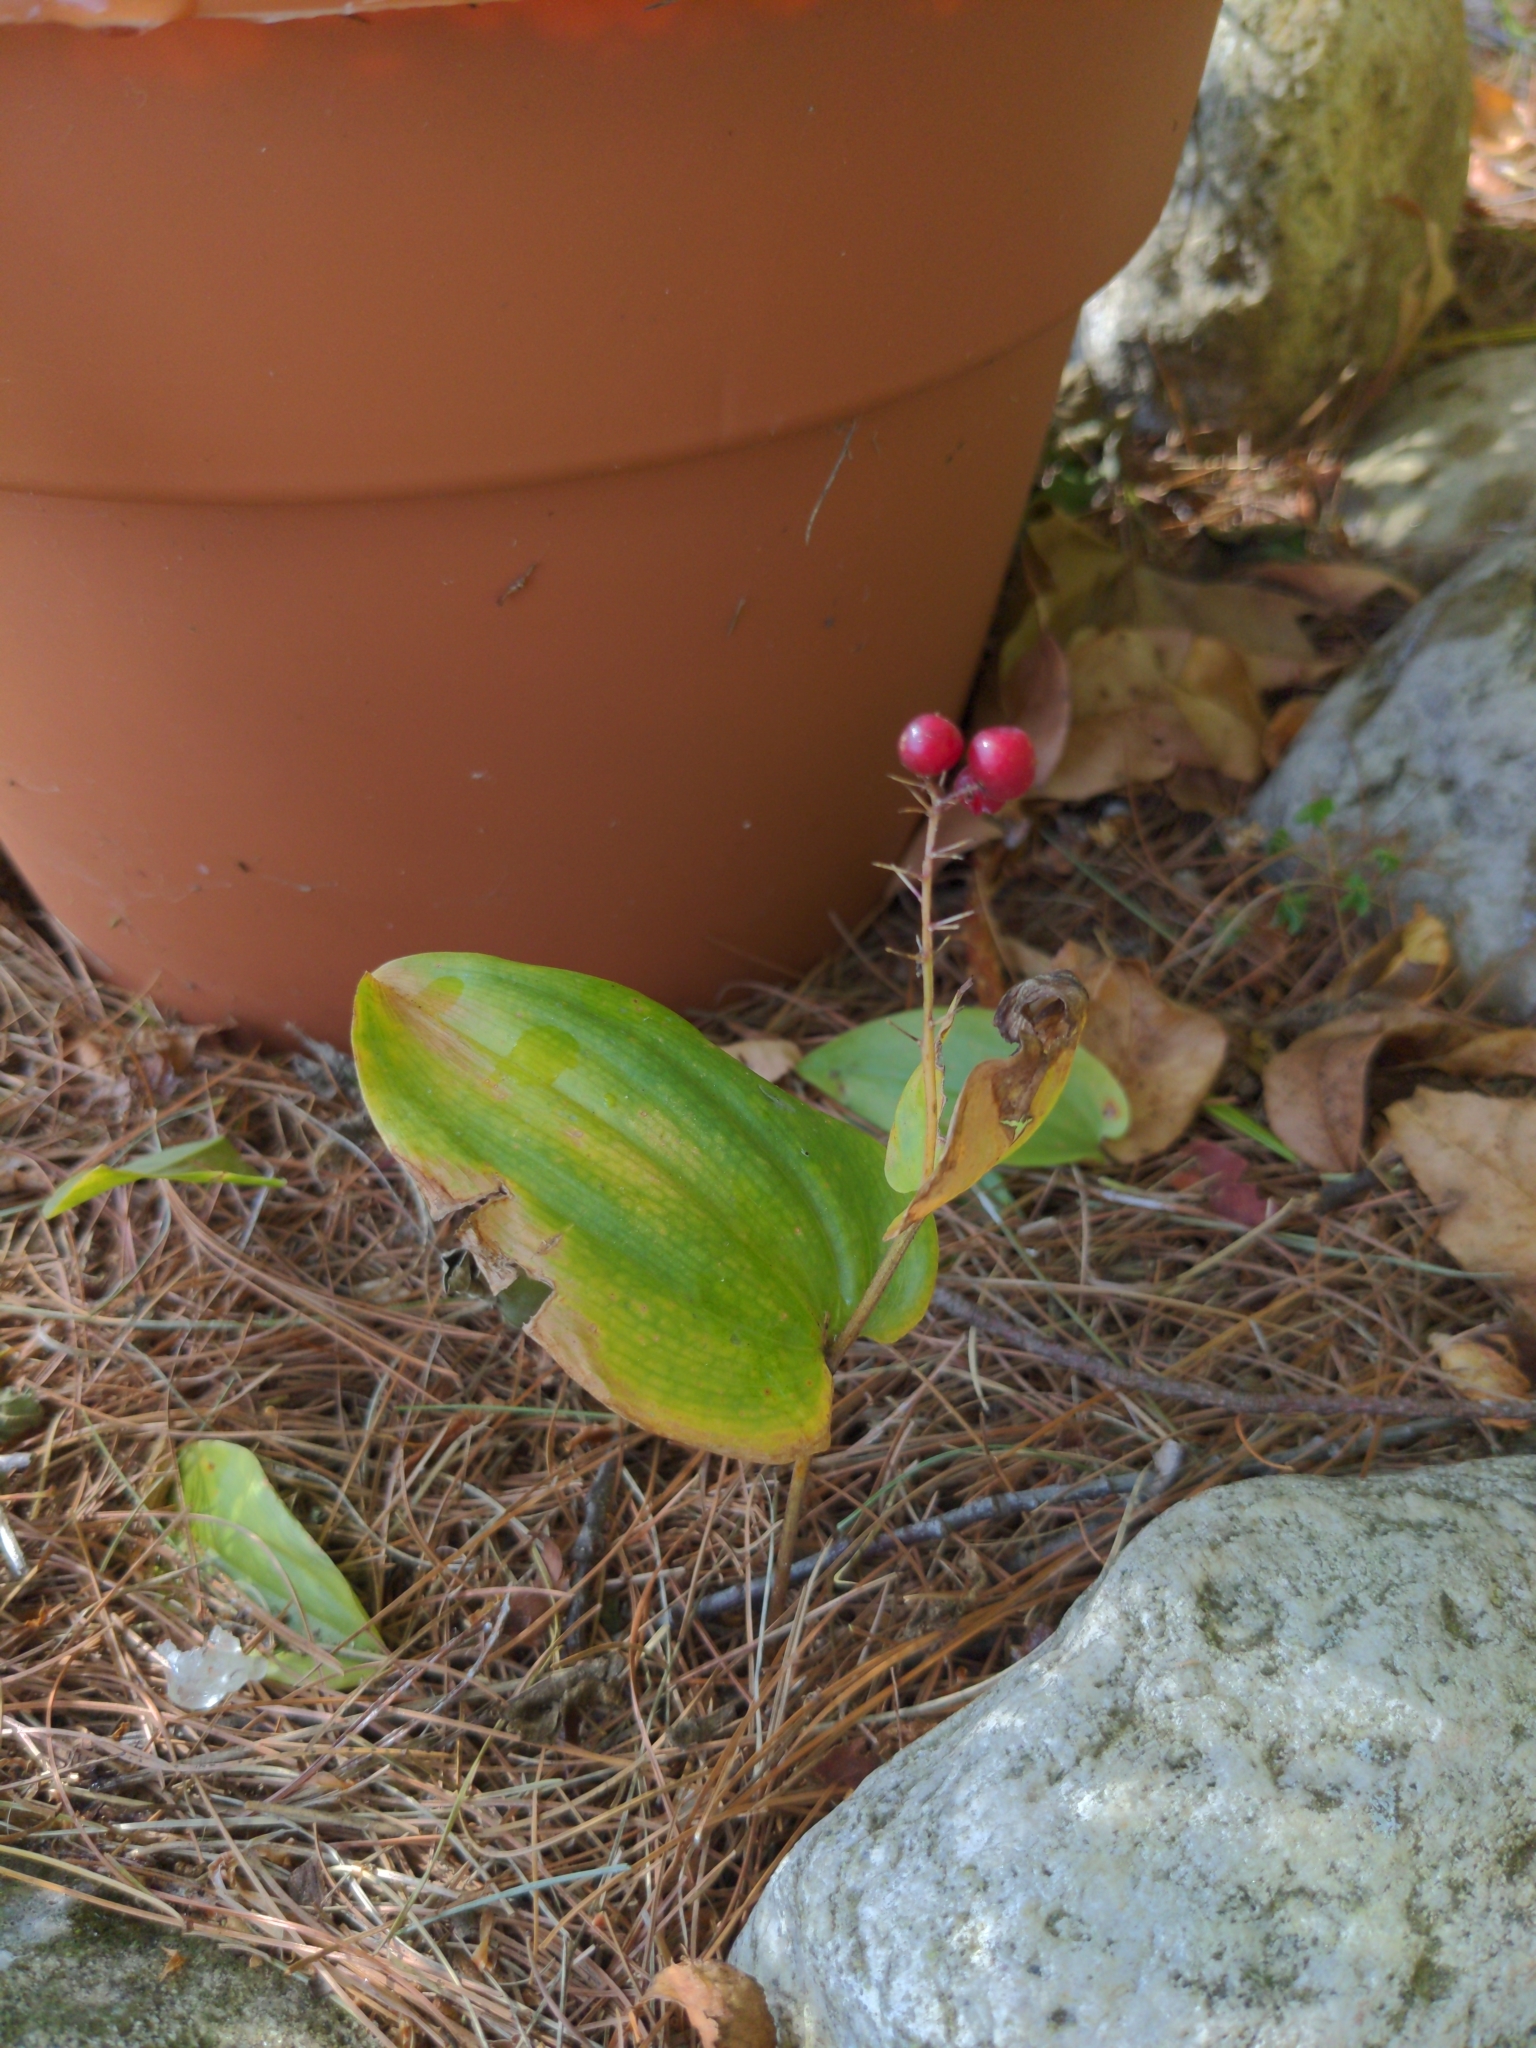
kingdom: Plantae
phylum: Tracheophyta
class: Liliopsida
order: Asparagales
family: Asparagaceae
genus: Maianthemum
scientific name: Maianthemum canadense
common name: False lily-of-the-valley
